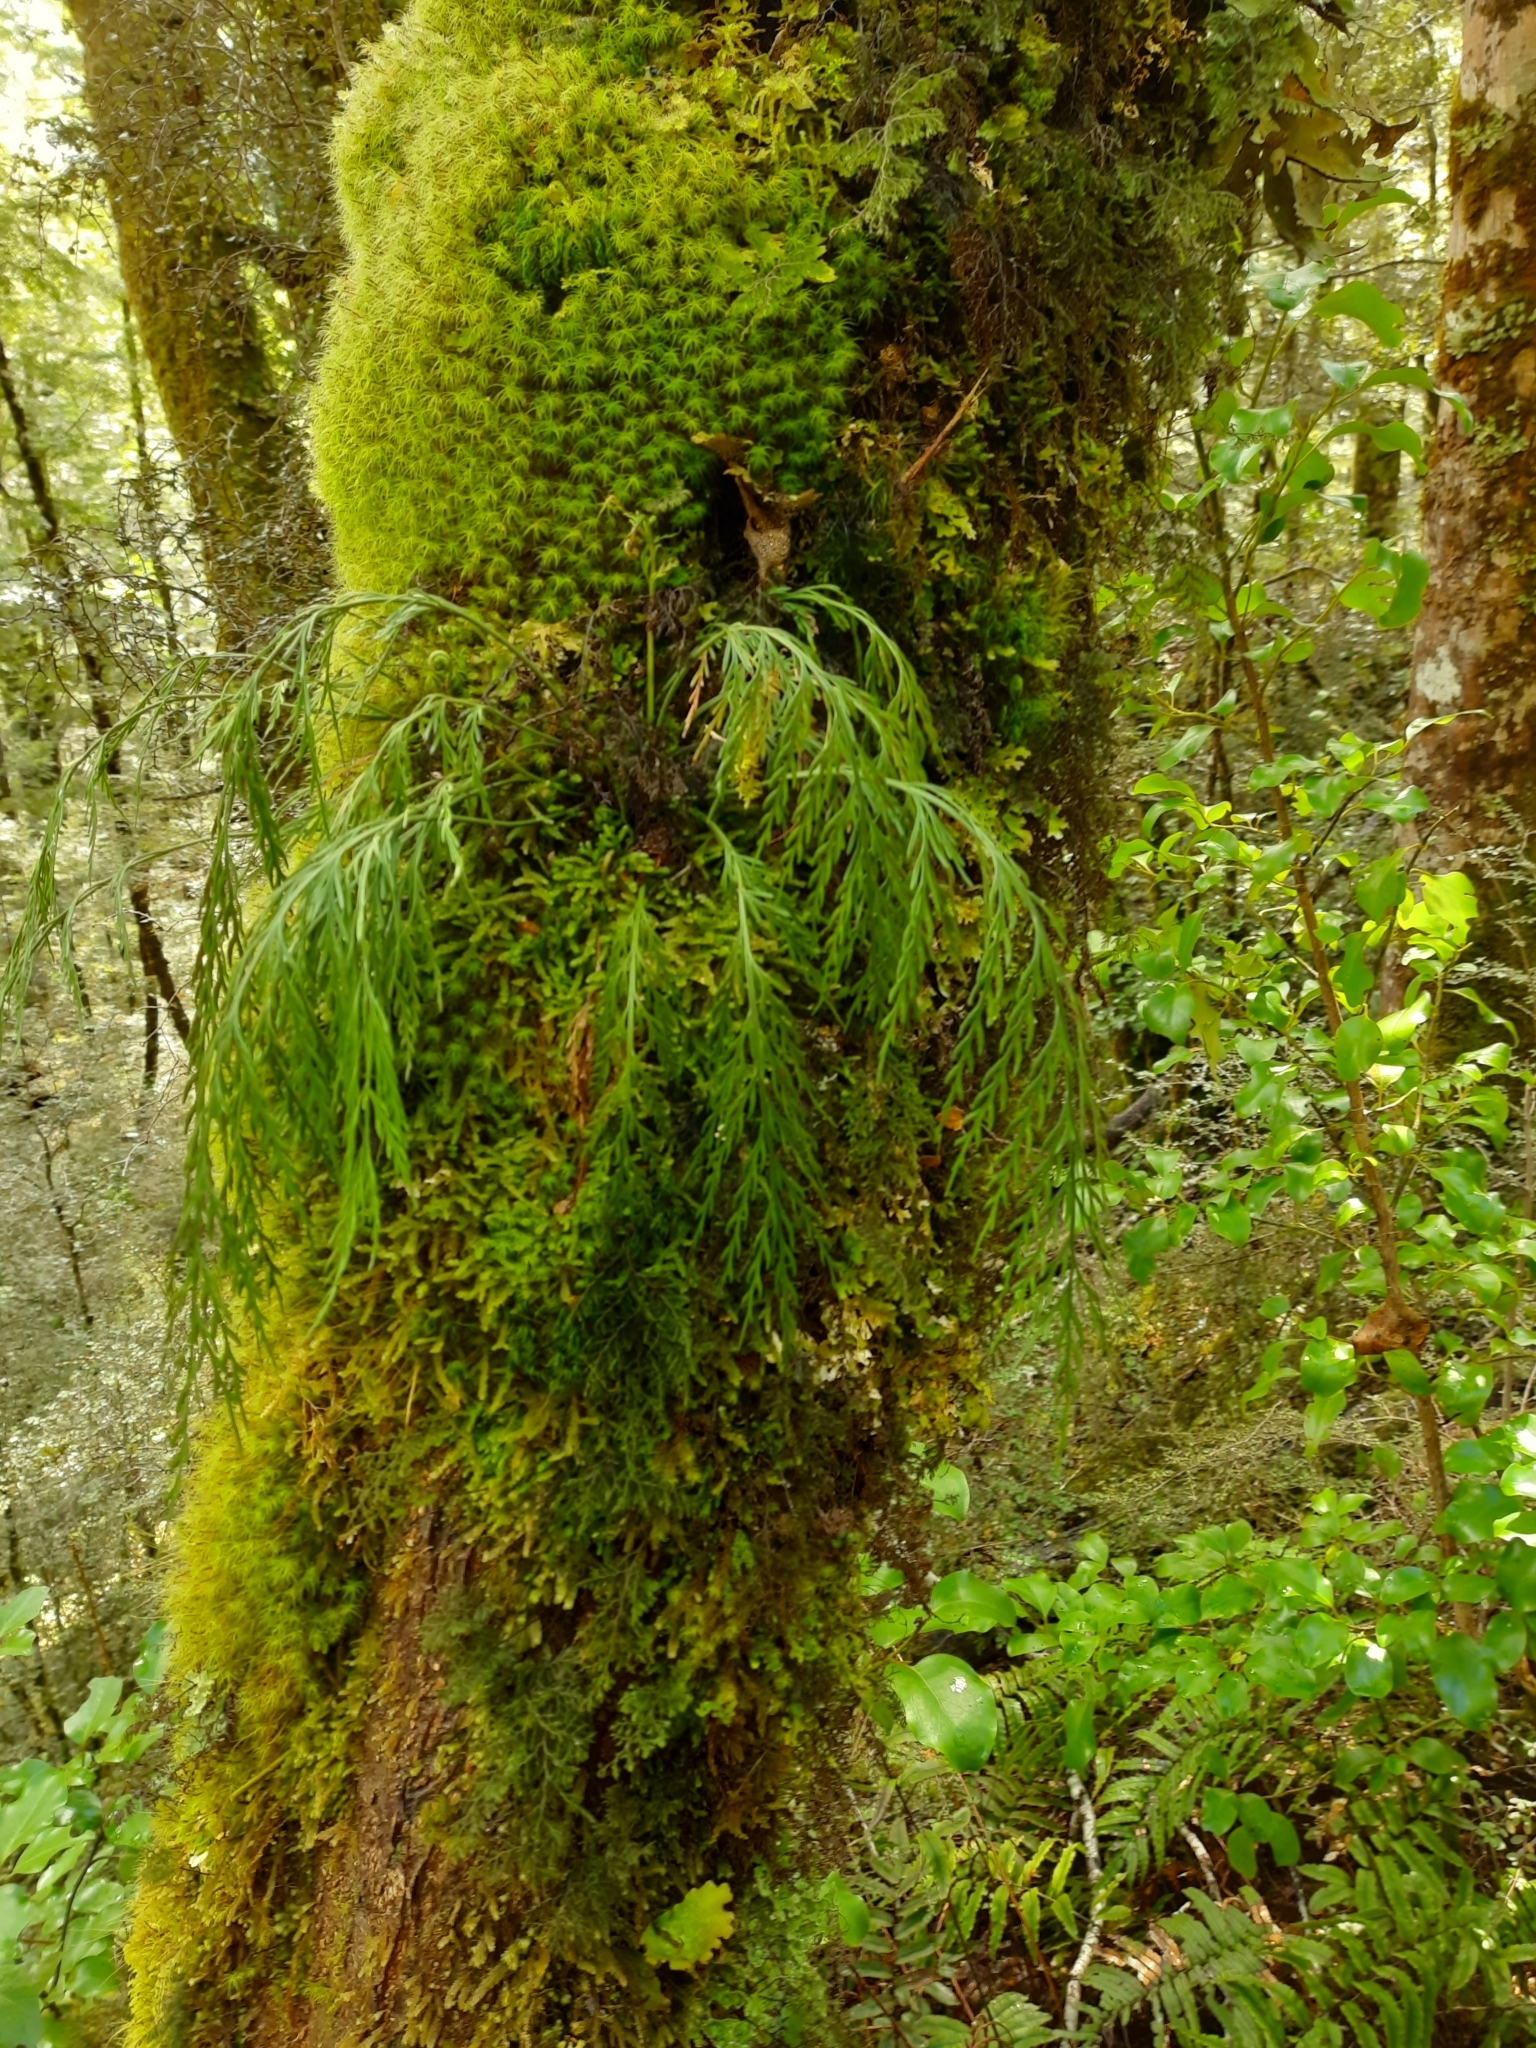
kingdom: Plantae
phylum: Tracheophyta
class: Polypodiopsida
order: Polypodiales
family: Aspleniaceae
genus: Asplenium
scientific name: Asplenium flaccidum
